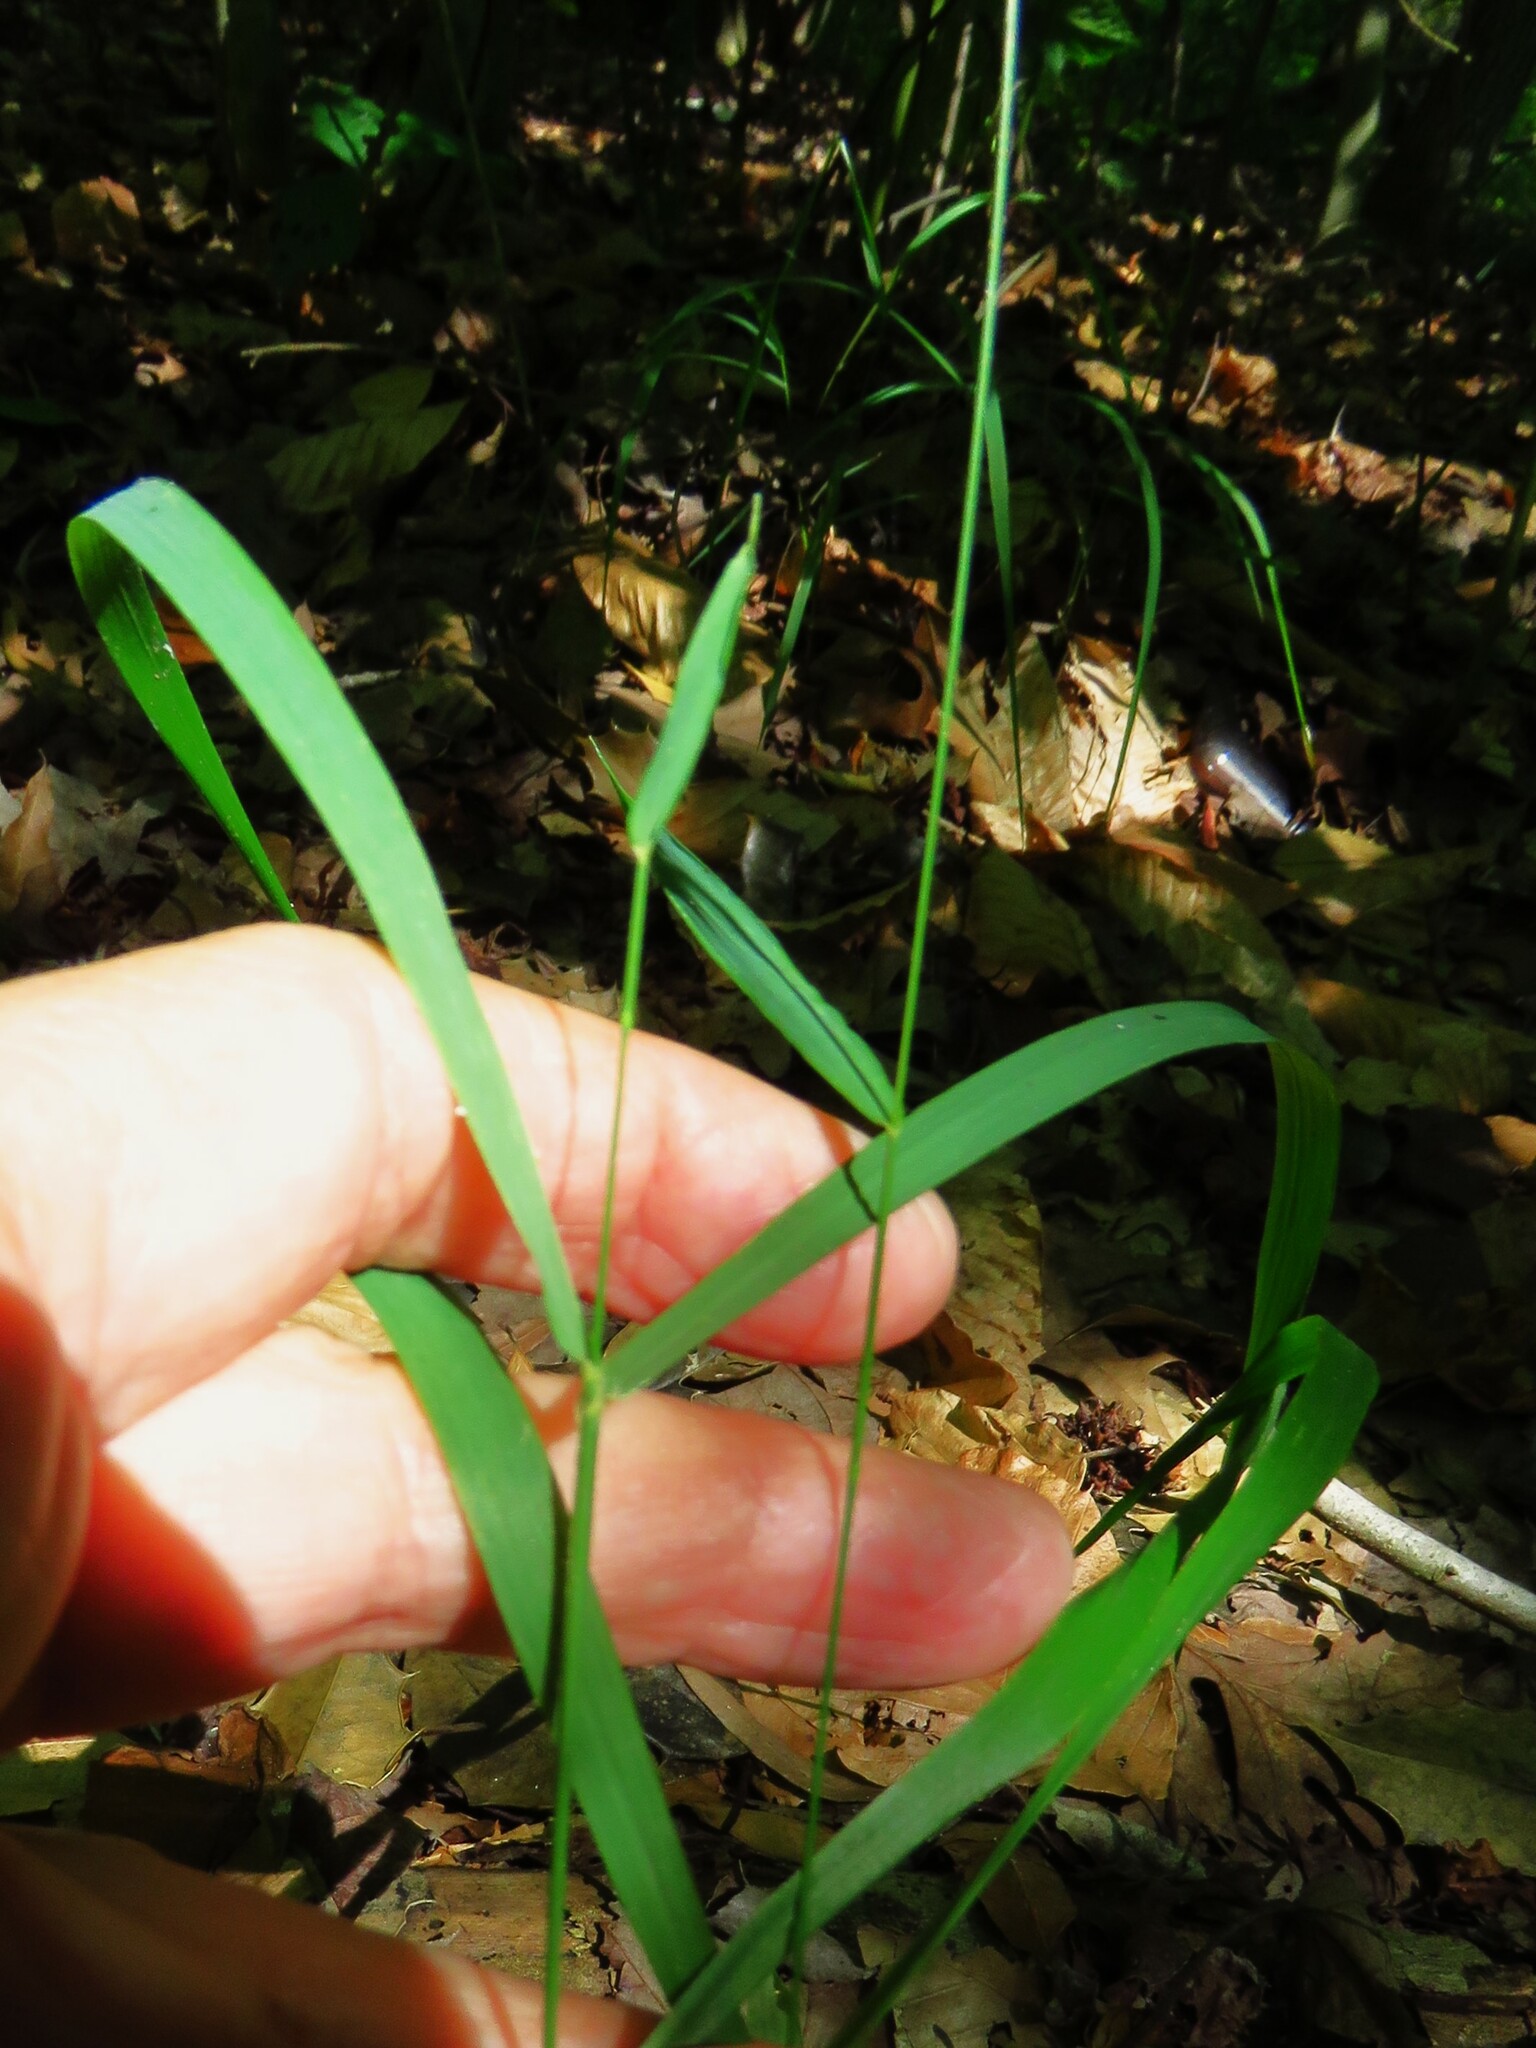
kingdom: Plantae
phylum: Tracheophyta
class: Liliopsida
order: Poales
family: Poaceae
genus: Chasmanthium
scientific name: Chasmanthium laxum
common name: Slender chasmanthium
